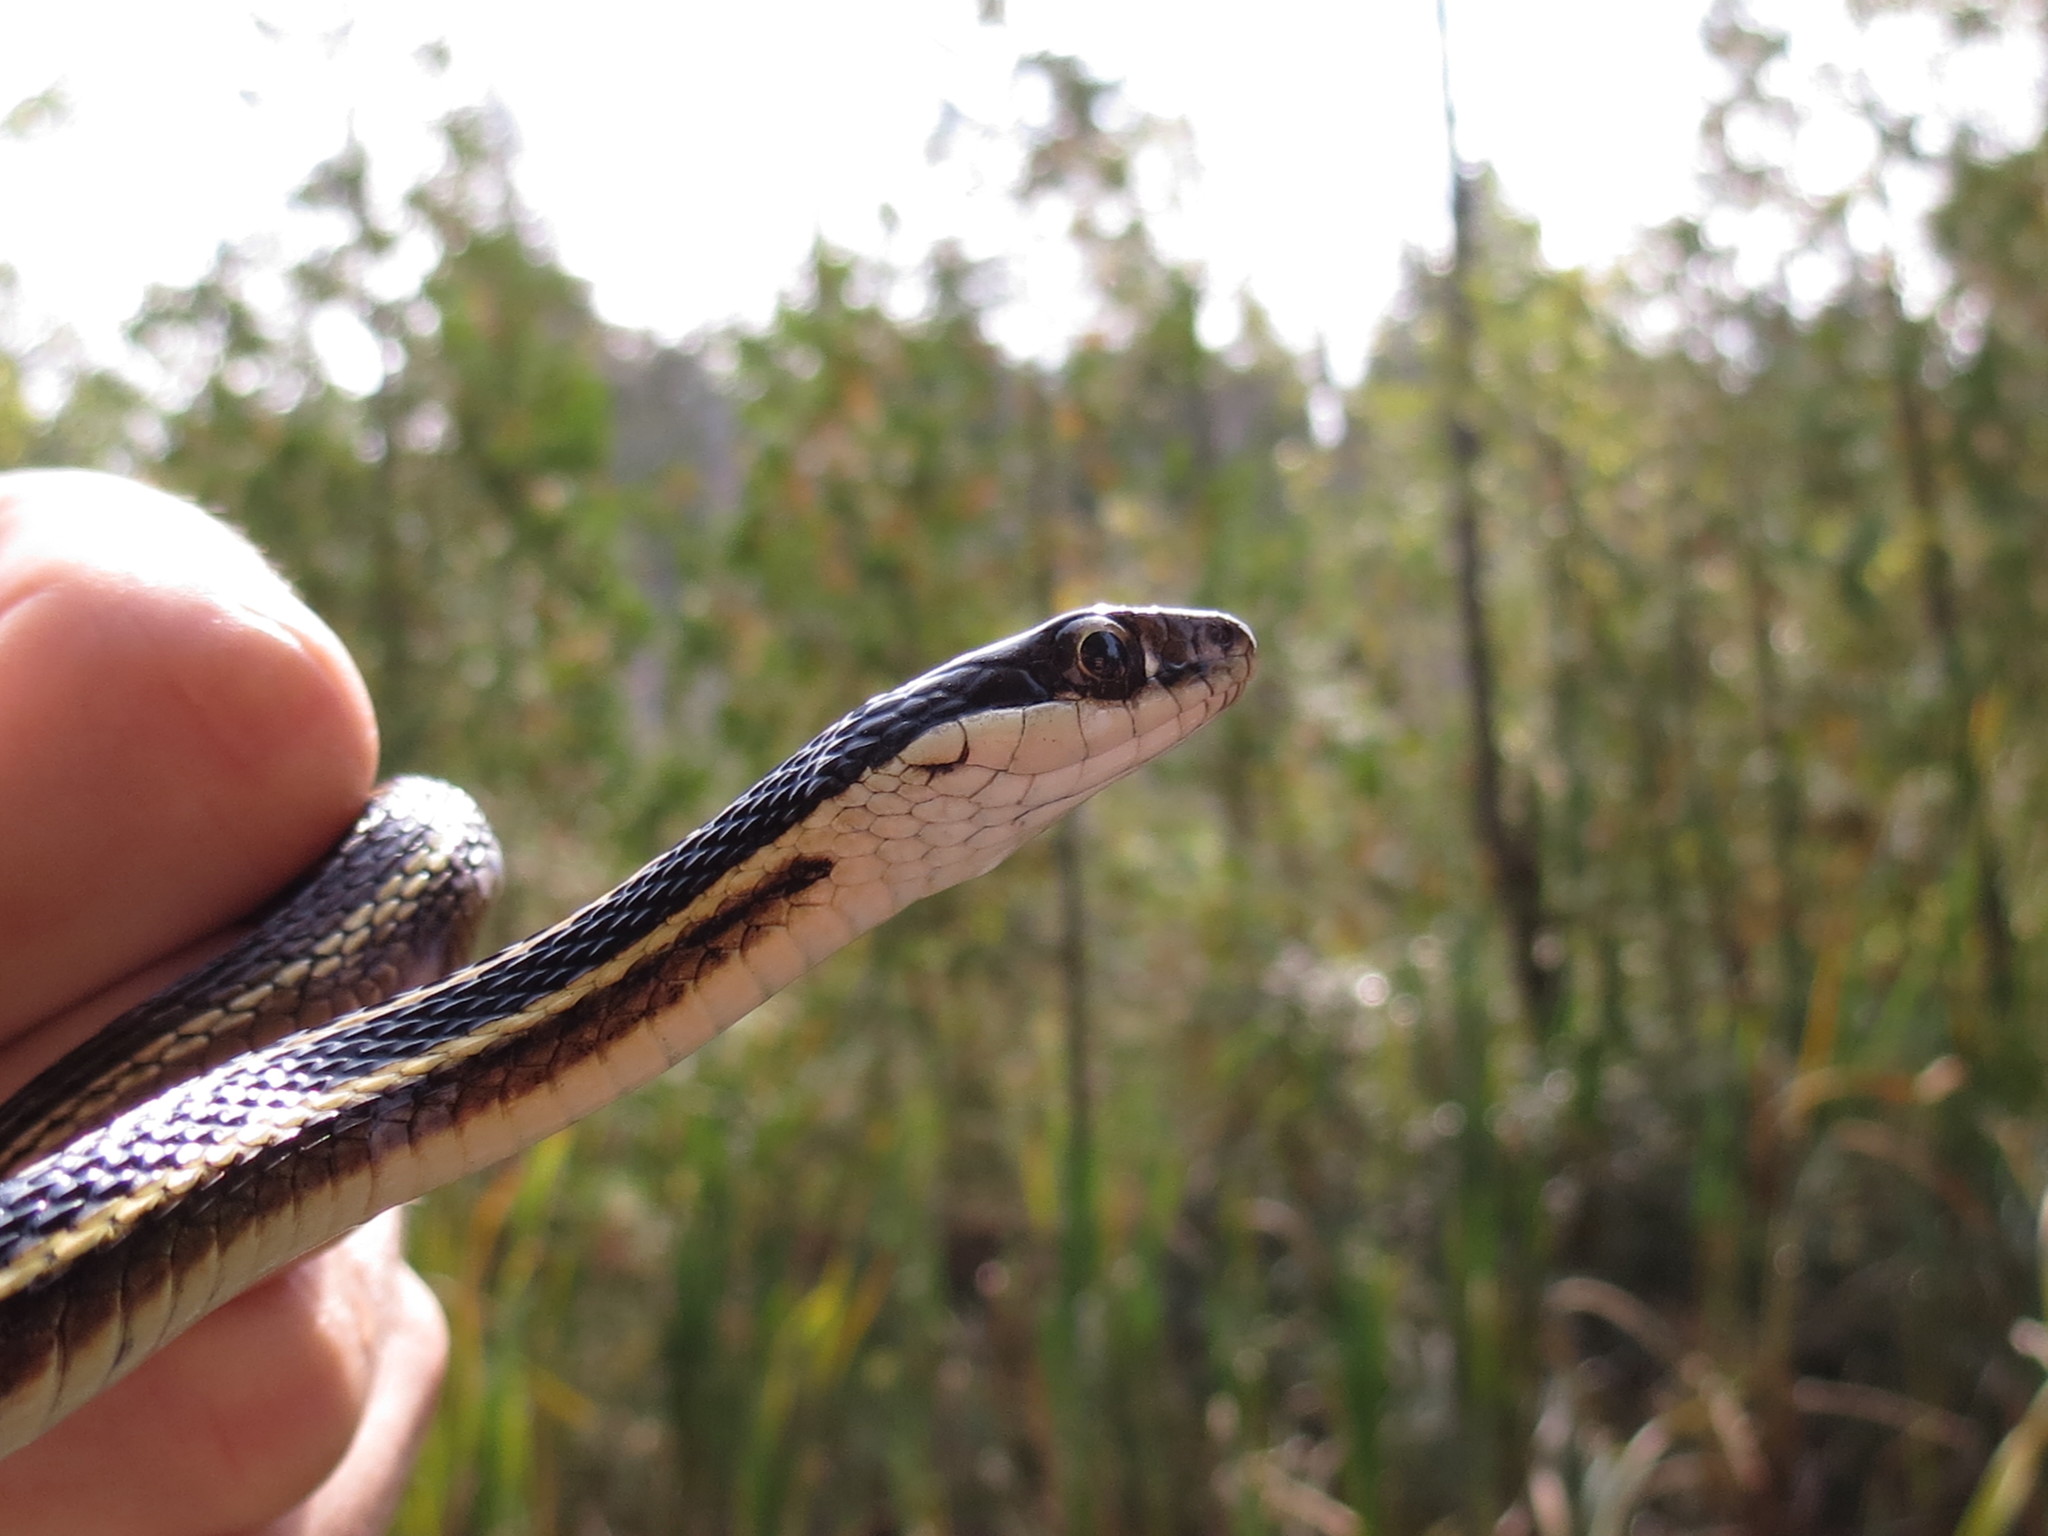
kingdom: Animalia
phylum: Chordata
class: Squamata
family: Colubridae
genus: Thamnophis
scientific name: Thamnophis saurita
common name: Eastern ribbonsnake
